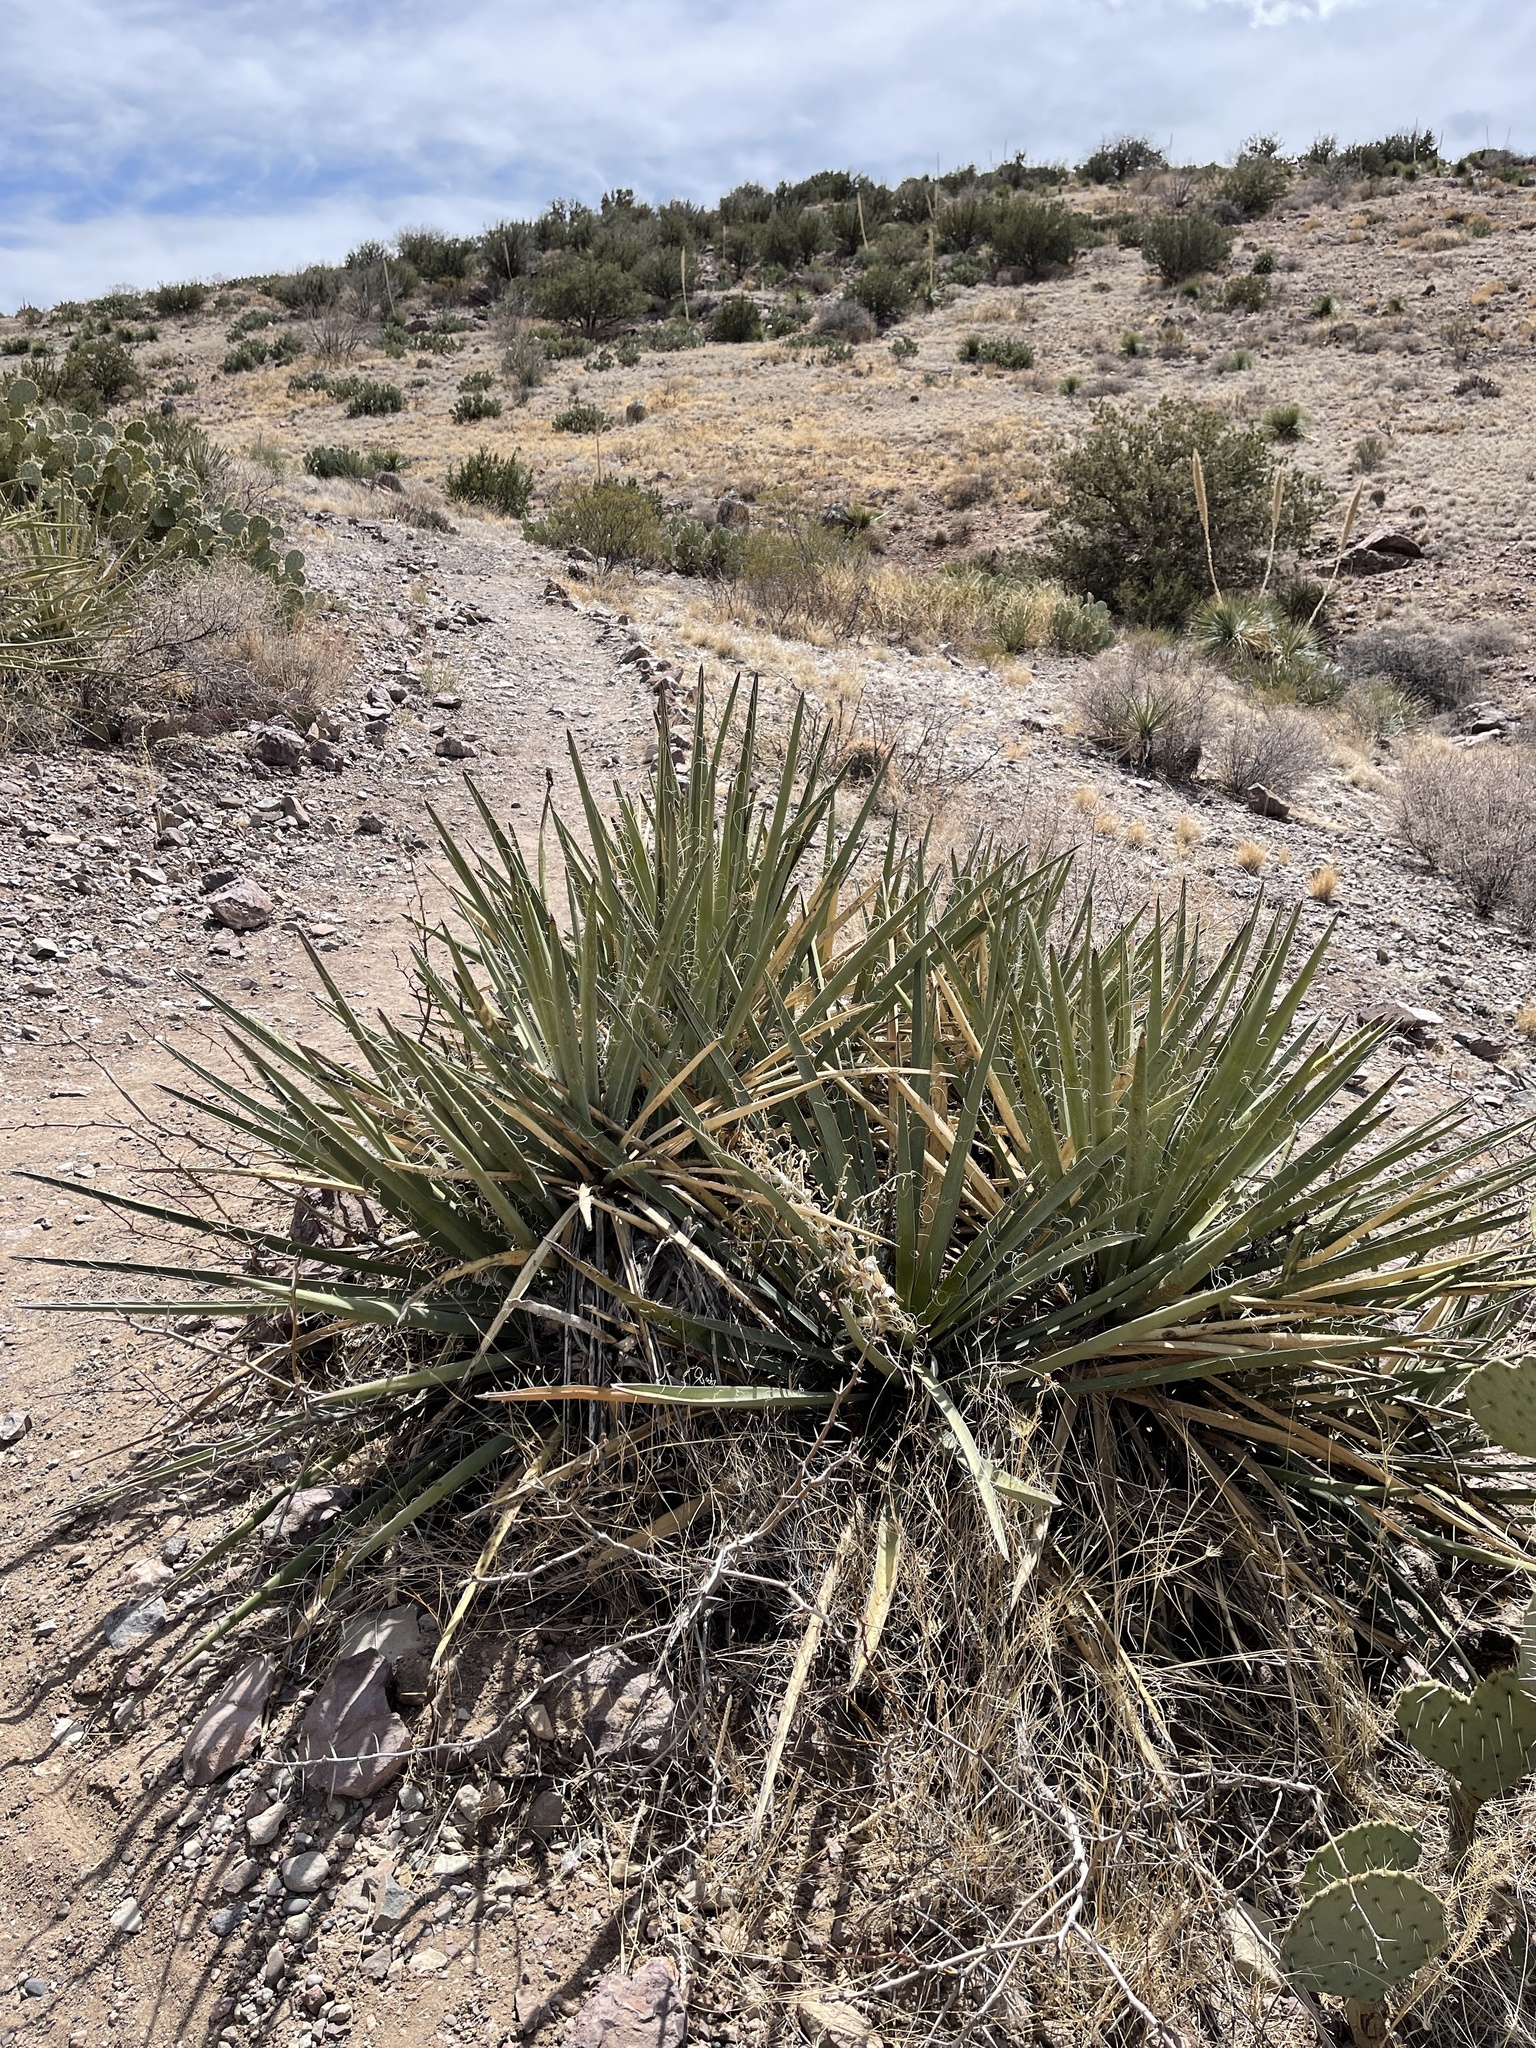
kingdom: Plantae
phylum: Tracheophyta
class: Liliopsida
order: Asparagales
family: Asparagaceae
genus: Yucca
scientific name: Yucca baccata
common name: Banana yucca
